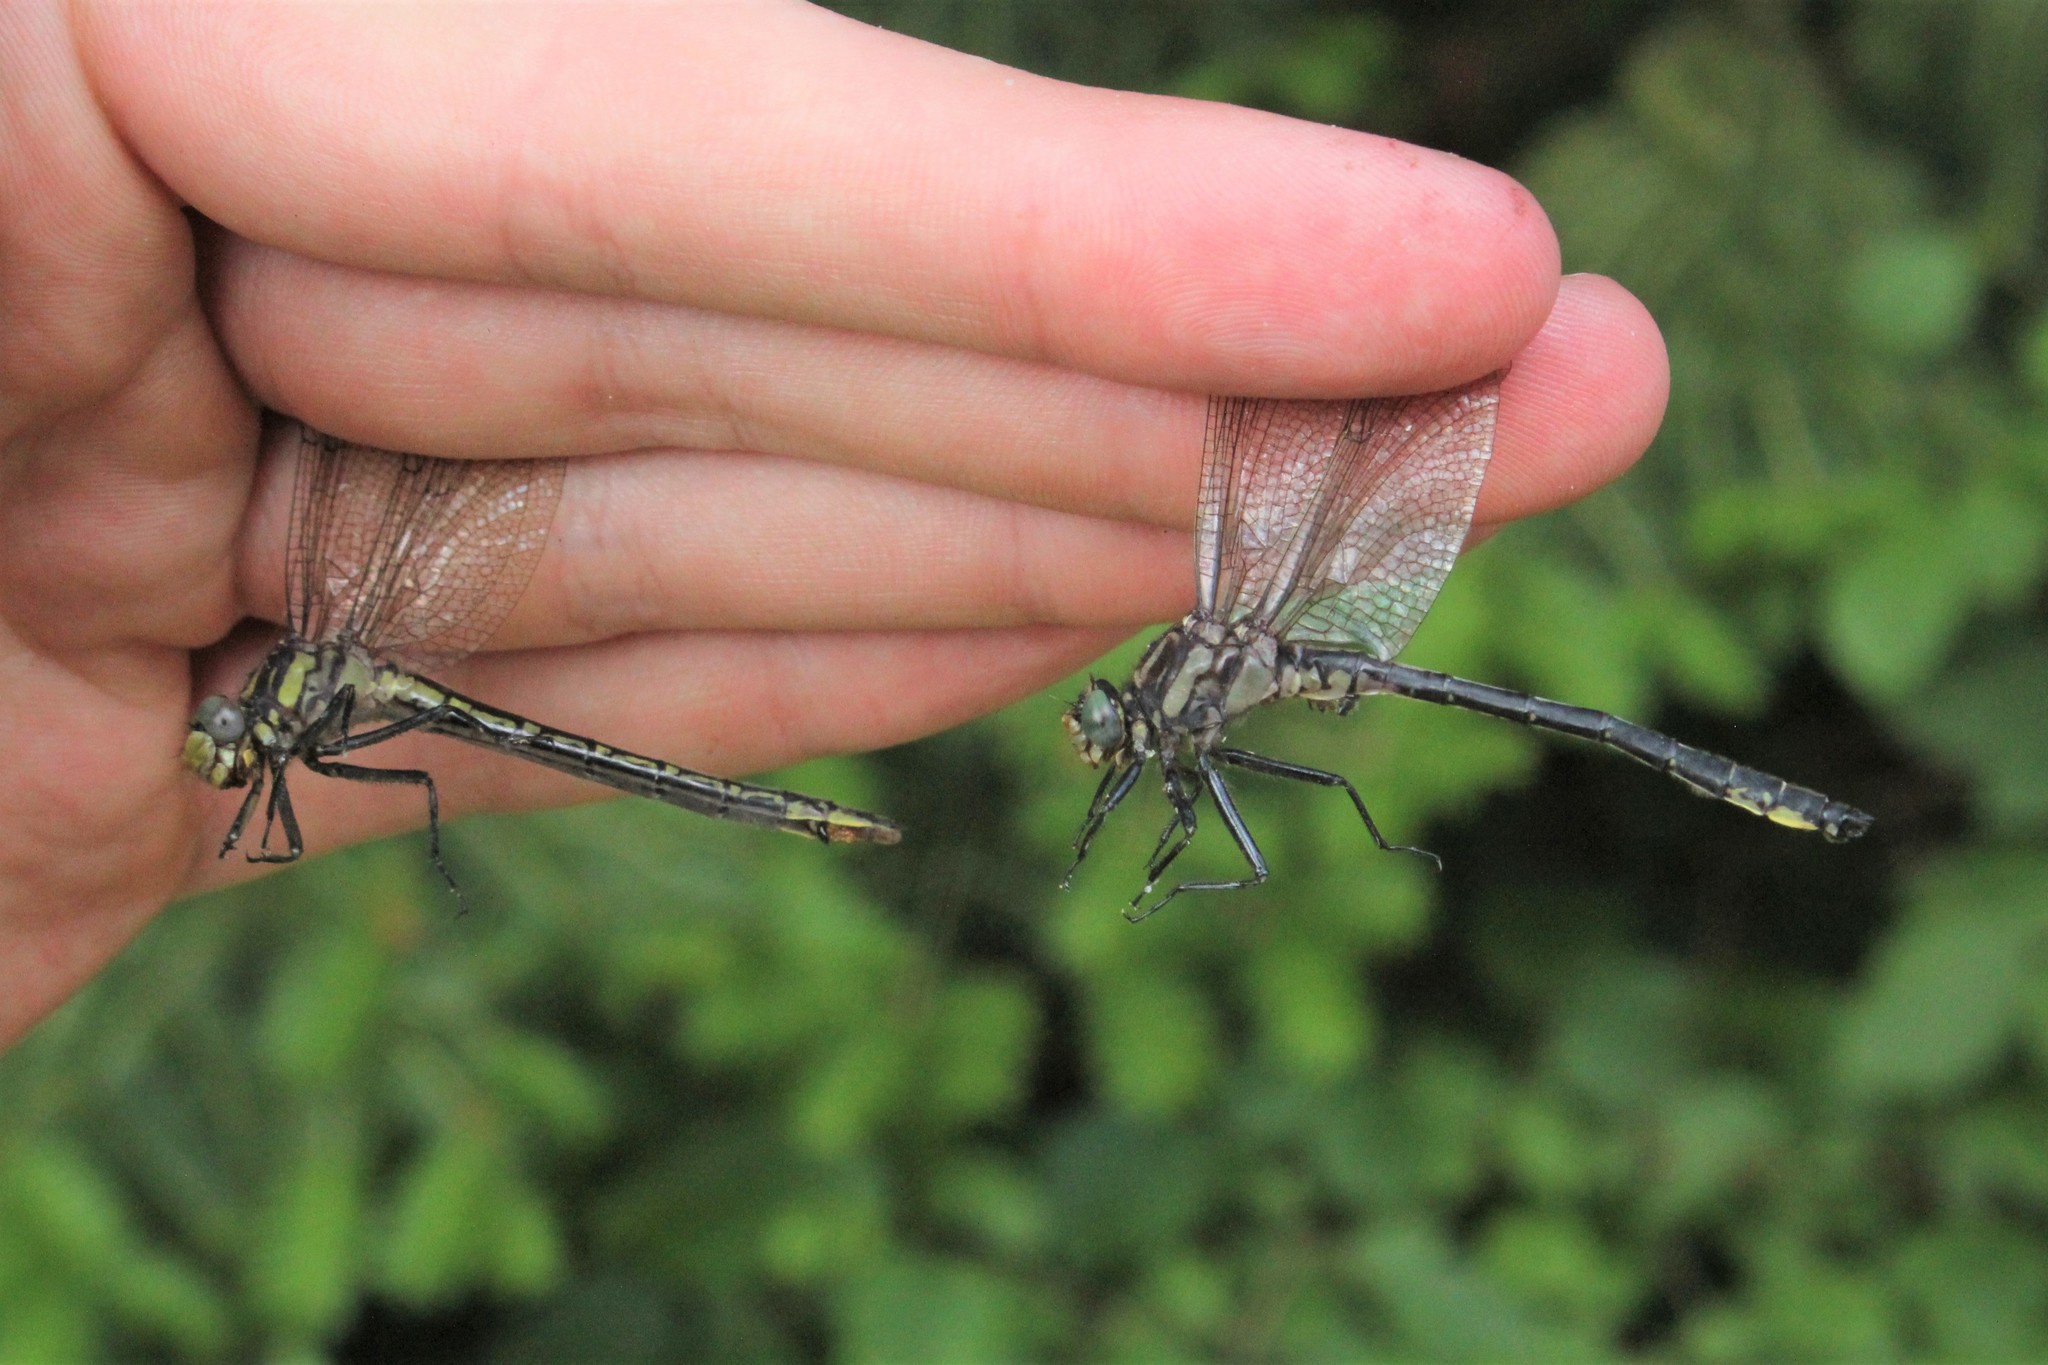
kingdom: Animalia
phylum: Arthropoda
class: Insecta
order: Odonata
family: Gomphidae
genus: Phanogomphus
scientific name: Phanogomphus descriptus
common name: Harpoon clubtail
